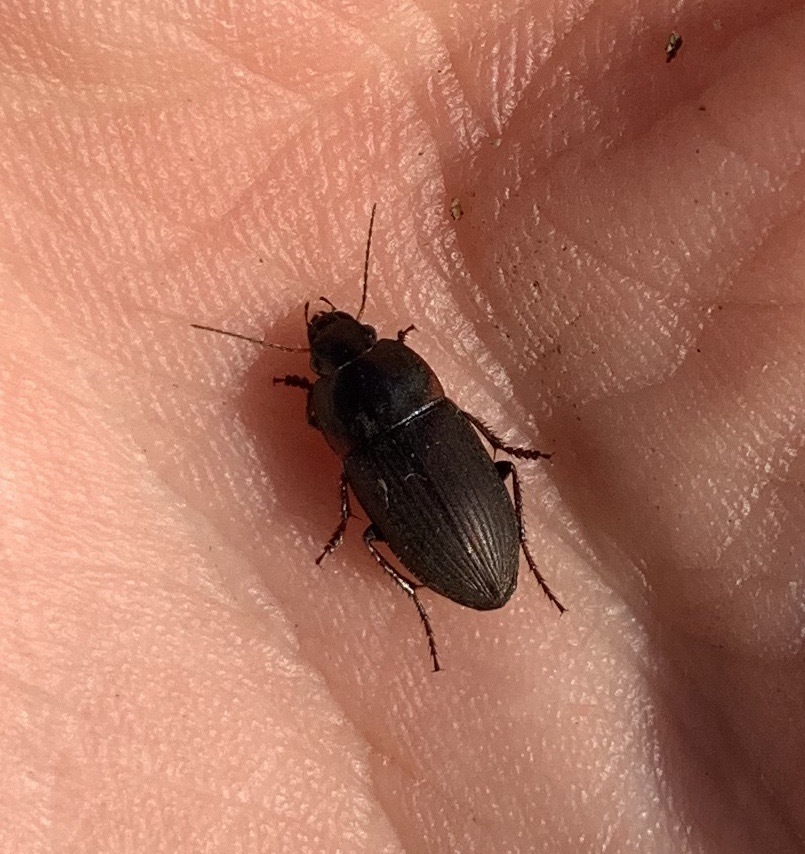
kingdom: Animalia
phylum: Arthropoda
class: Insecta
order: Coleoptera
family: Carabidae
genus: Anisodactylus
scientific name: Anisodactylus rusticus
